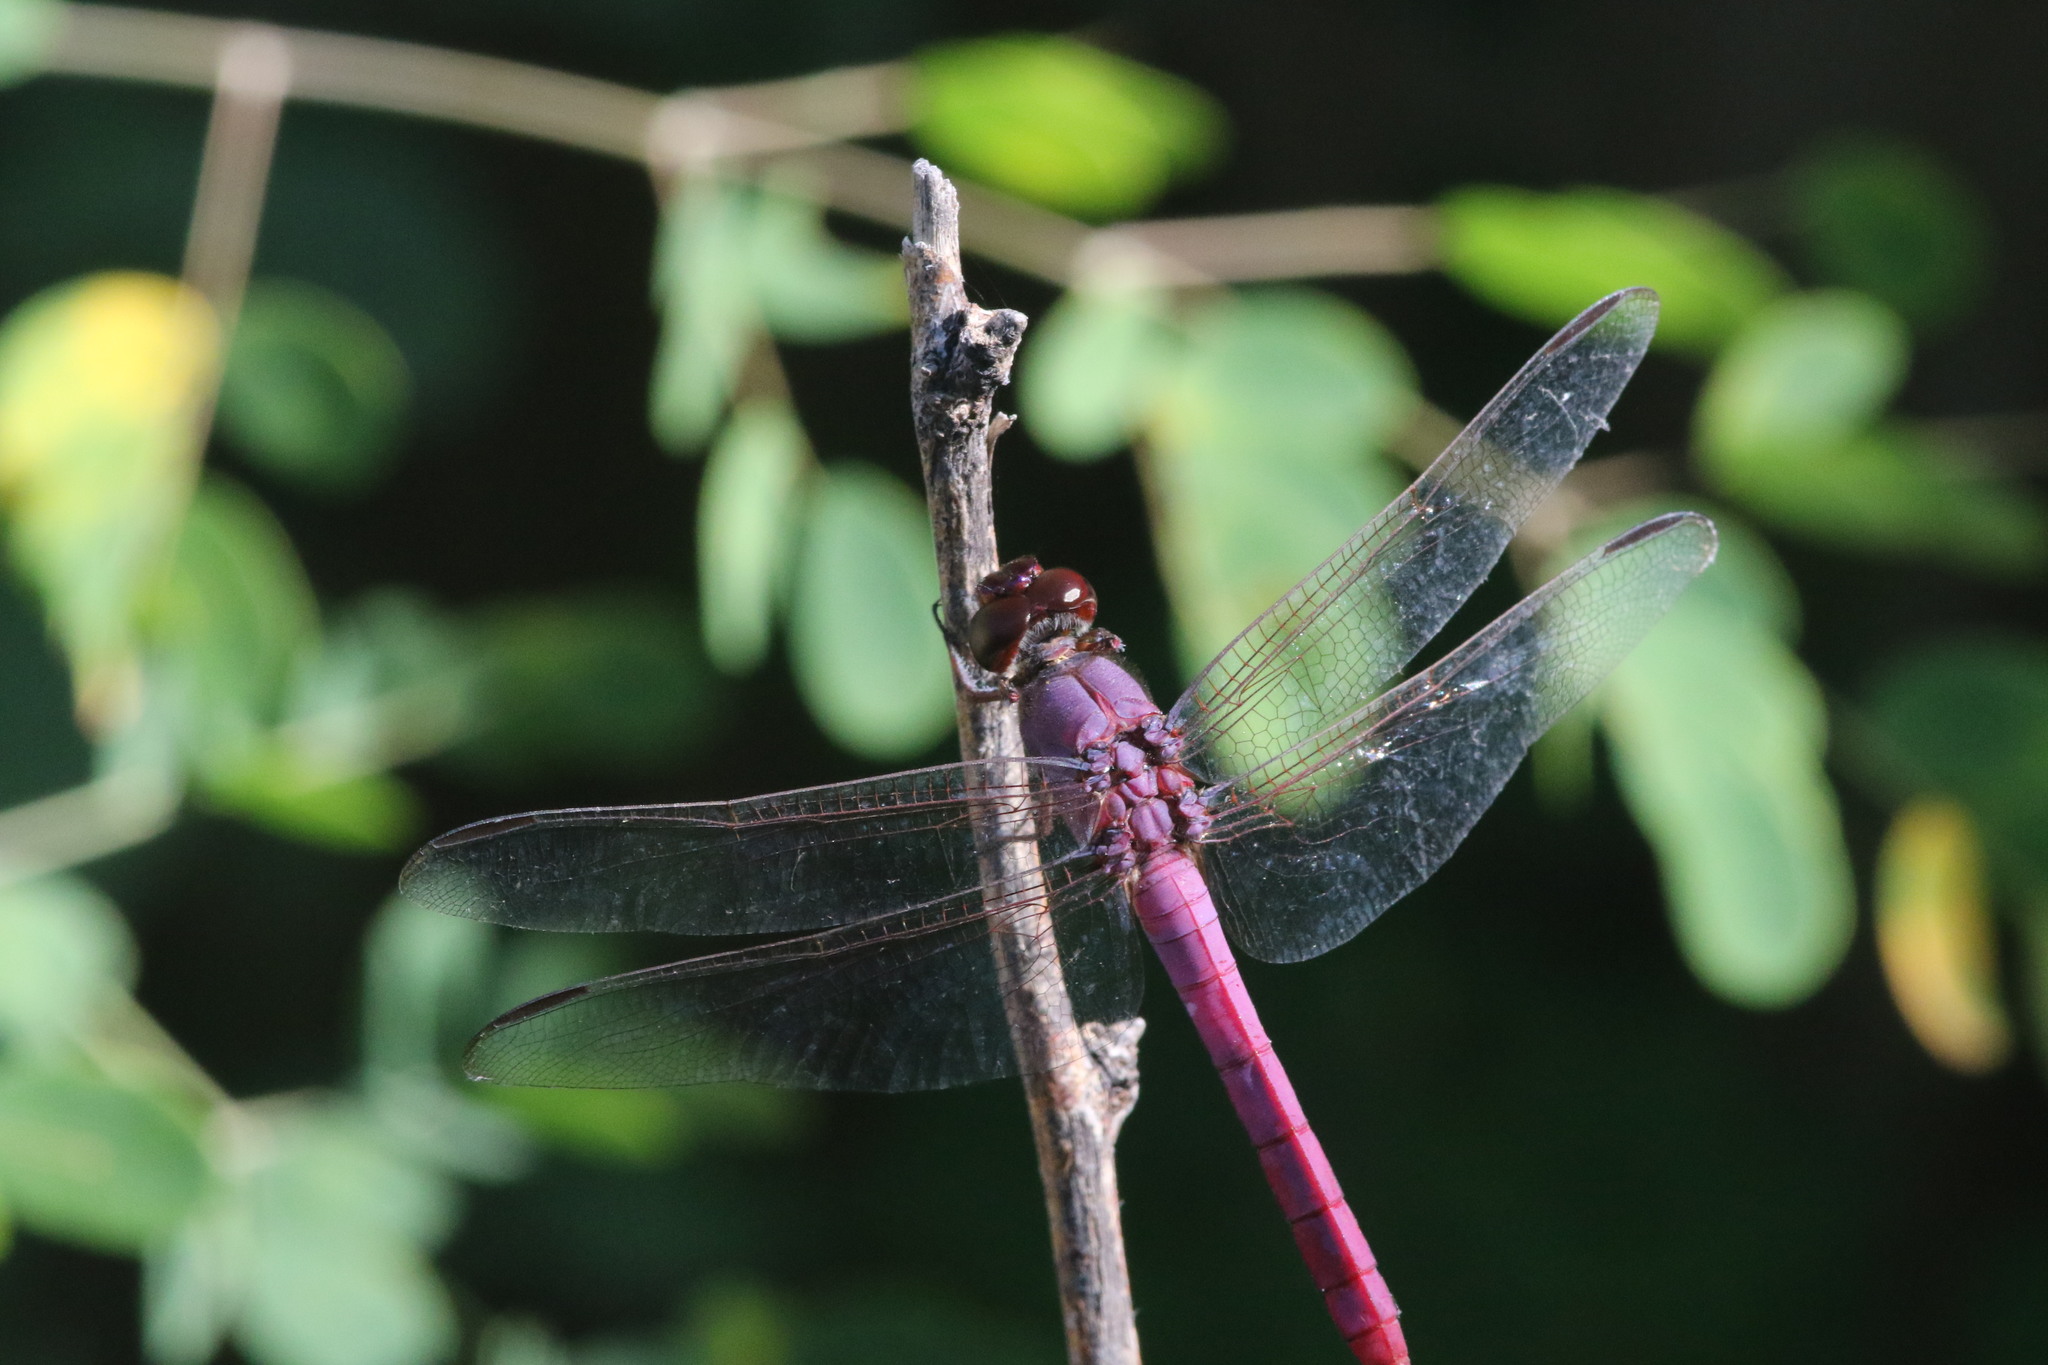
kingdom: Animalia
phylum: Arthropoda
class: Insecta
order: Odonata
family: Libellulidae
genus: Orthemis
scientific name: Orthemis ferruginea
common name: Roseate skimmer
